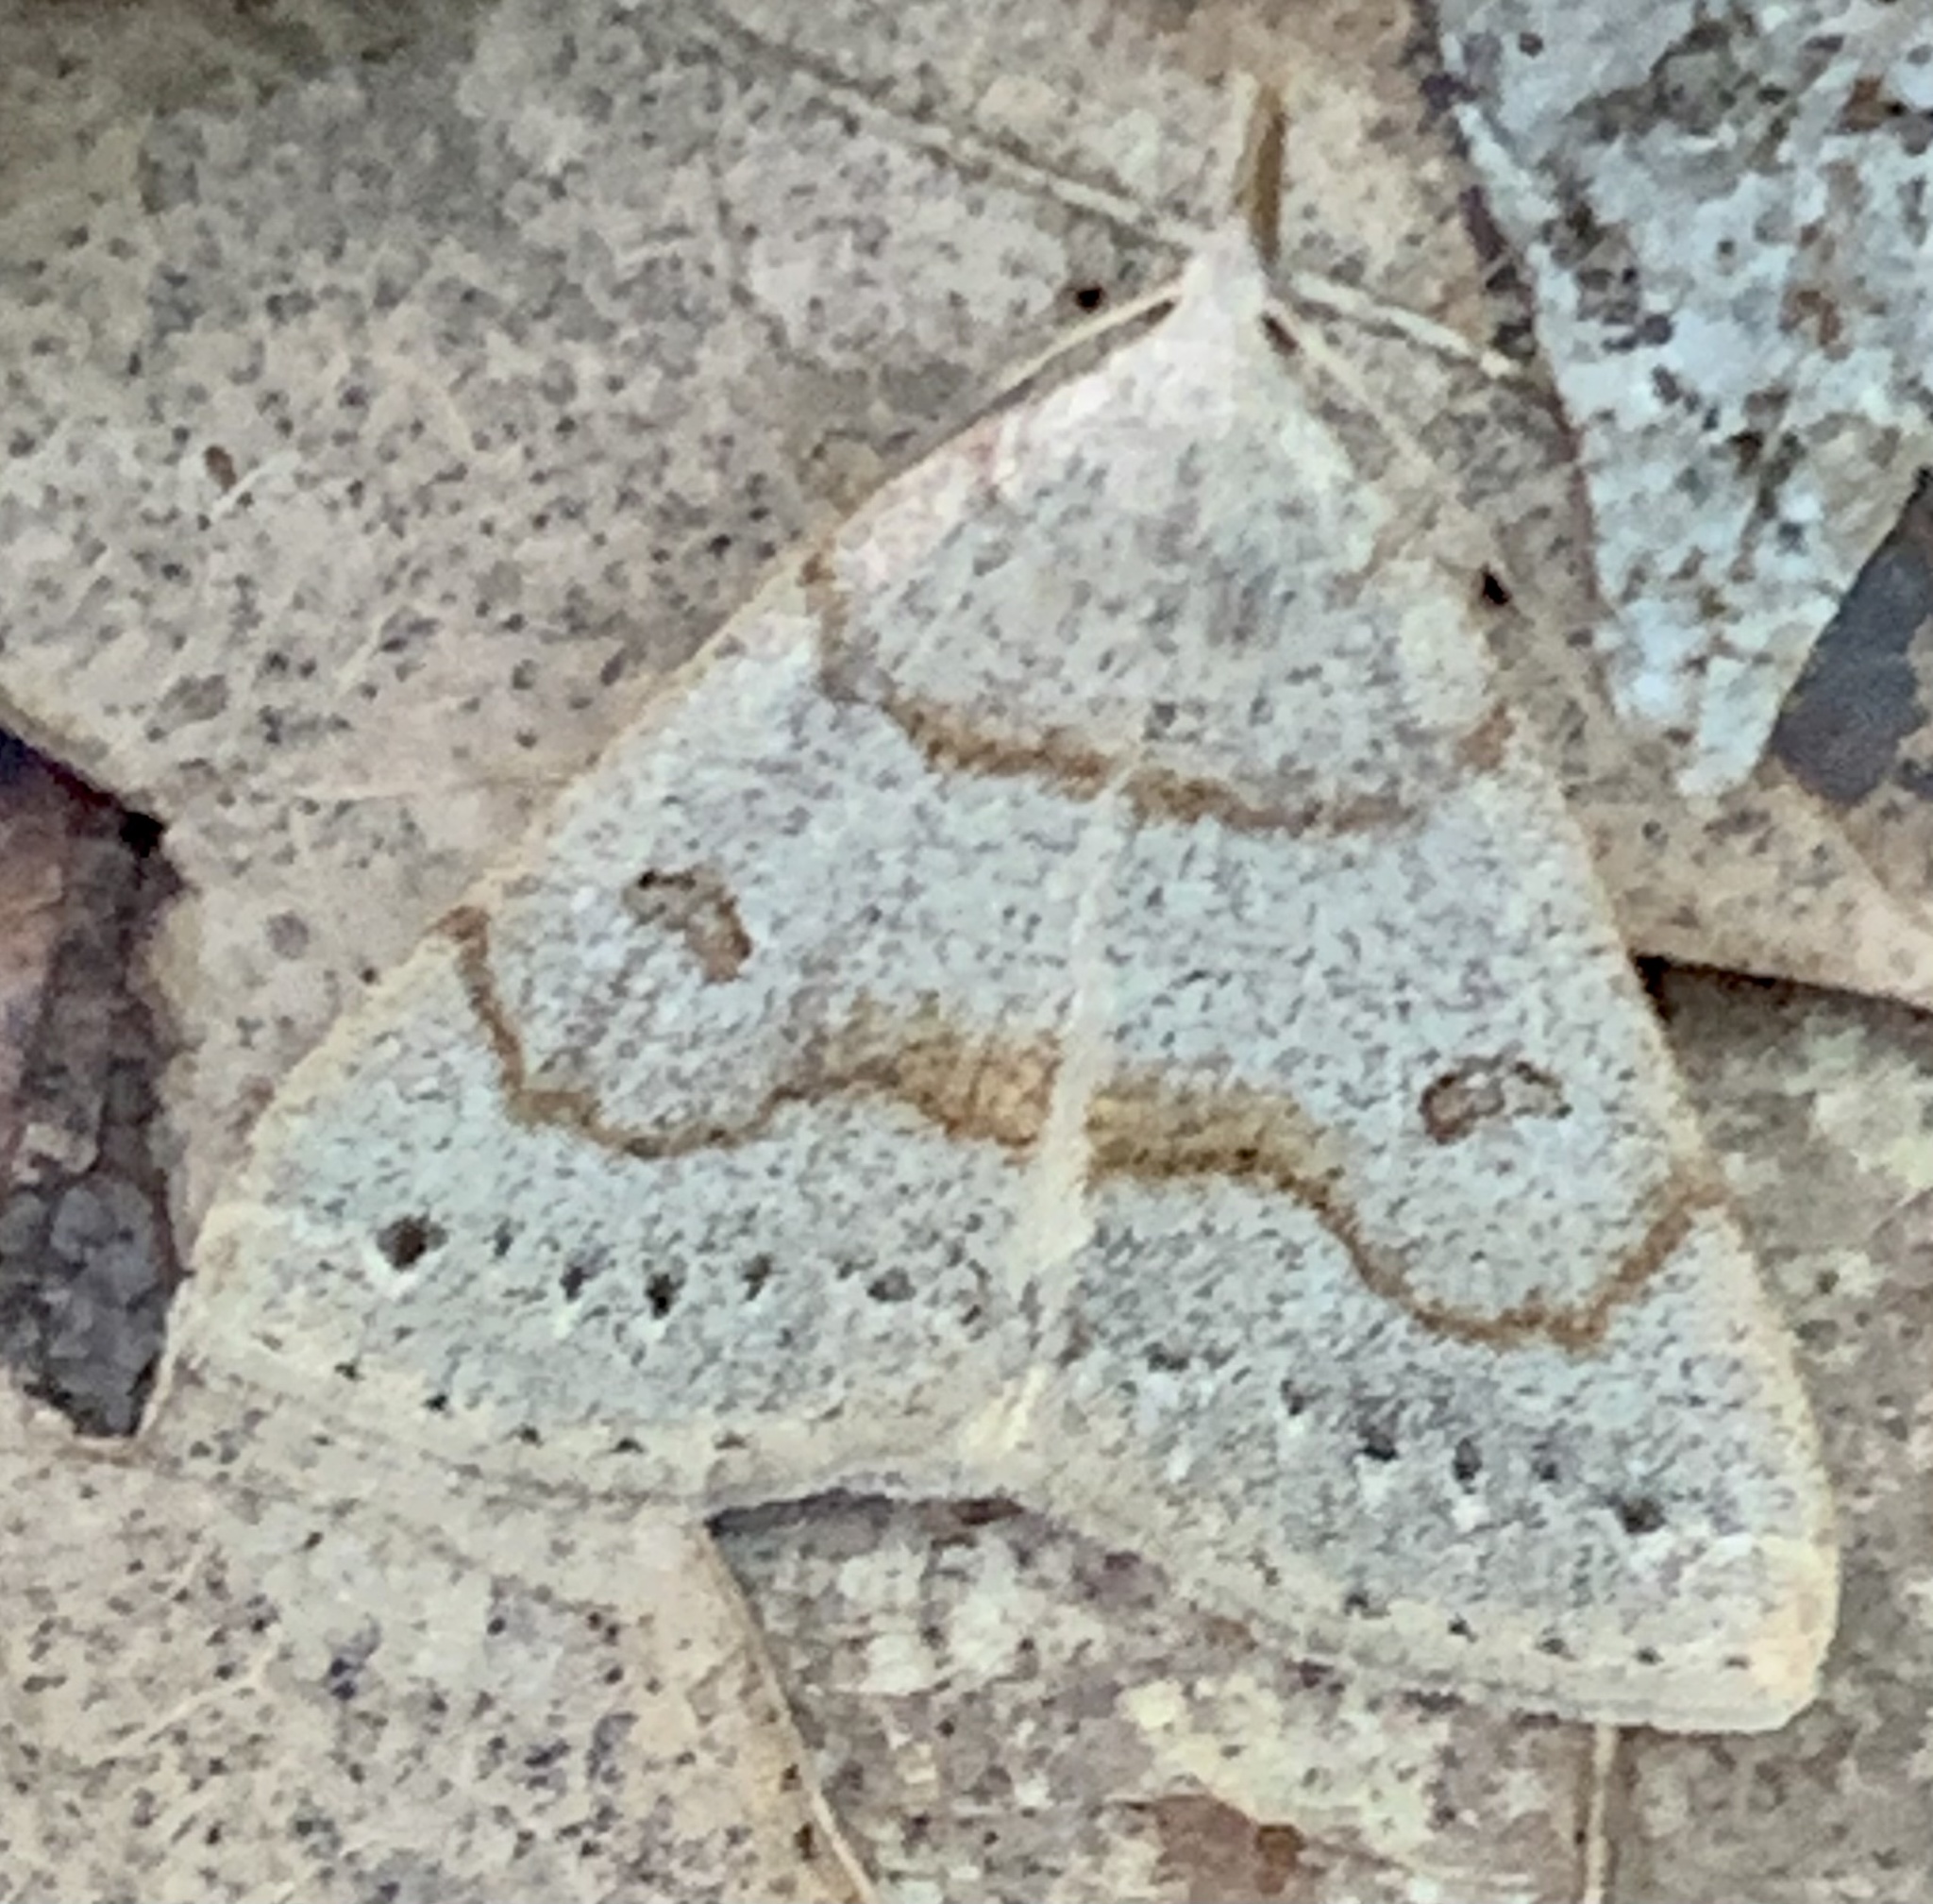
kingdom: Animalia
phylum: Arthropoda
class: Insecta
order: Lepidoptera
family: Erebidae
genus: Macrochilo
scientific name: Macrochilo morbidalis
